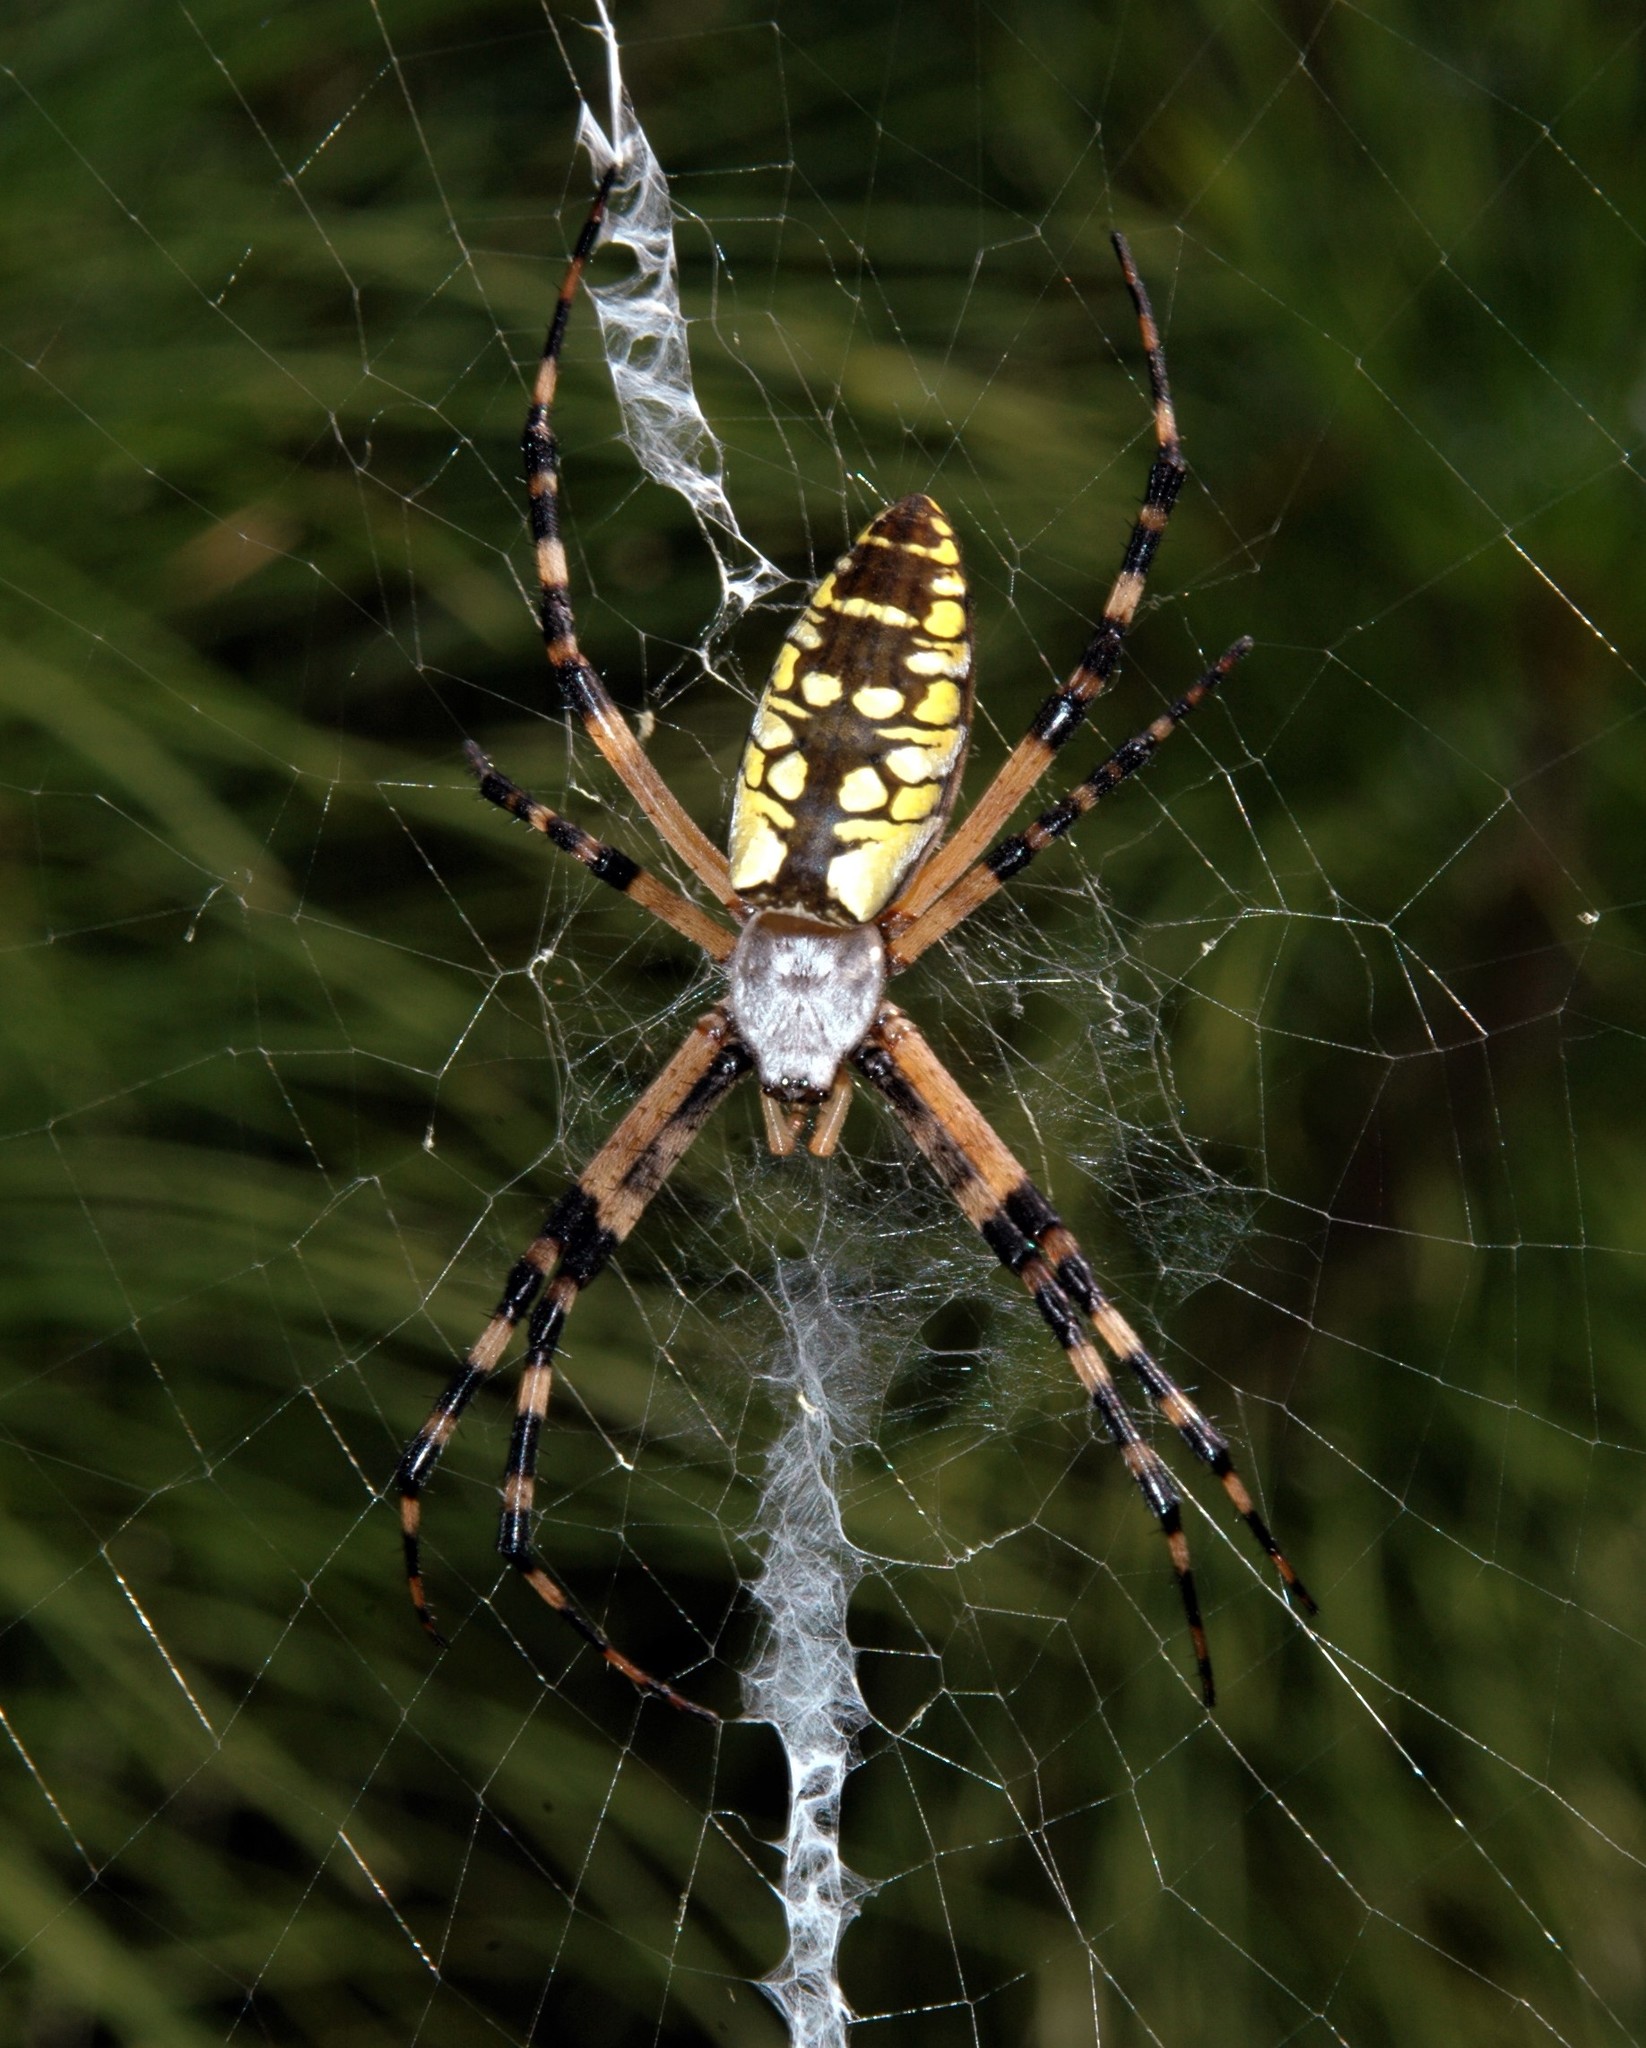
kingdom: Animalia
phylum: Arthropoda
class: Arachnida
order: Araneae
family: Araneidae
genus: Argiope
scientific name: Argiope aurantia
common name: Orb weavers
